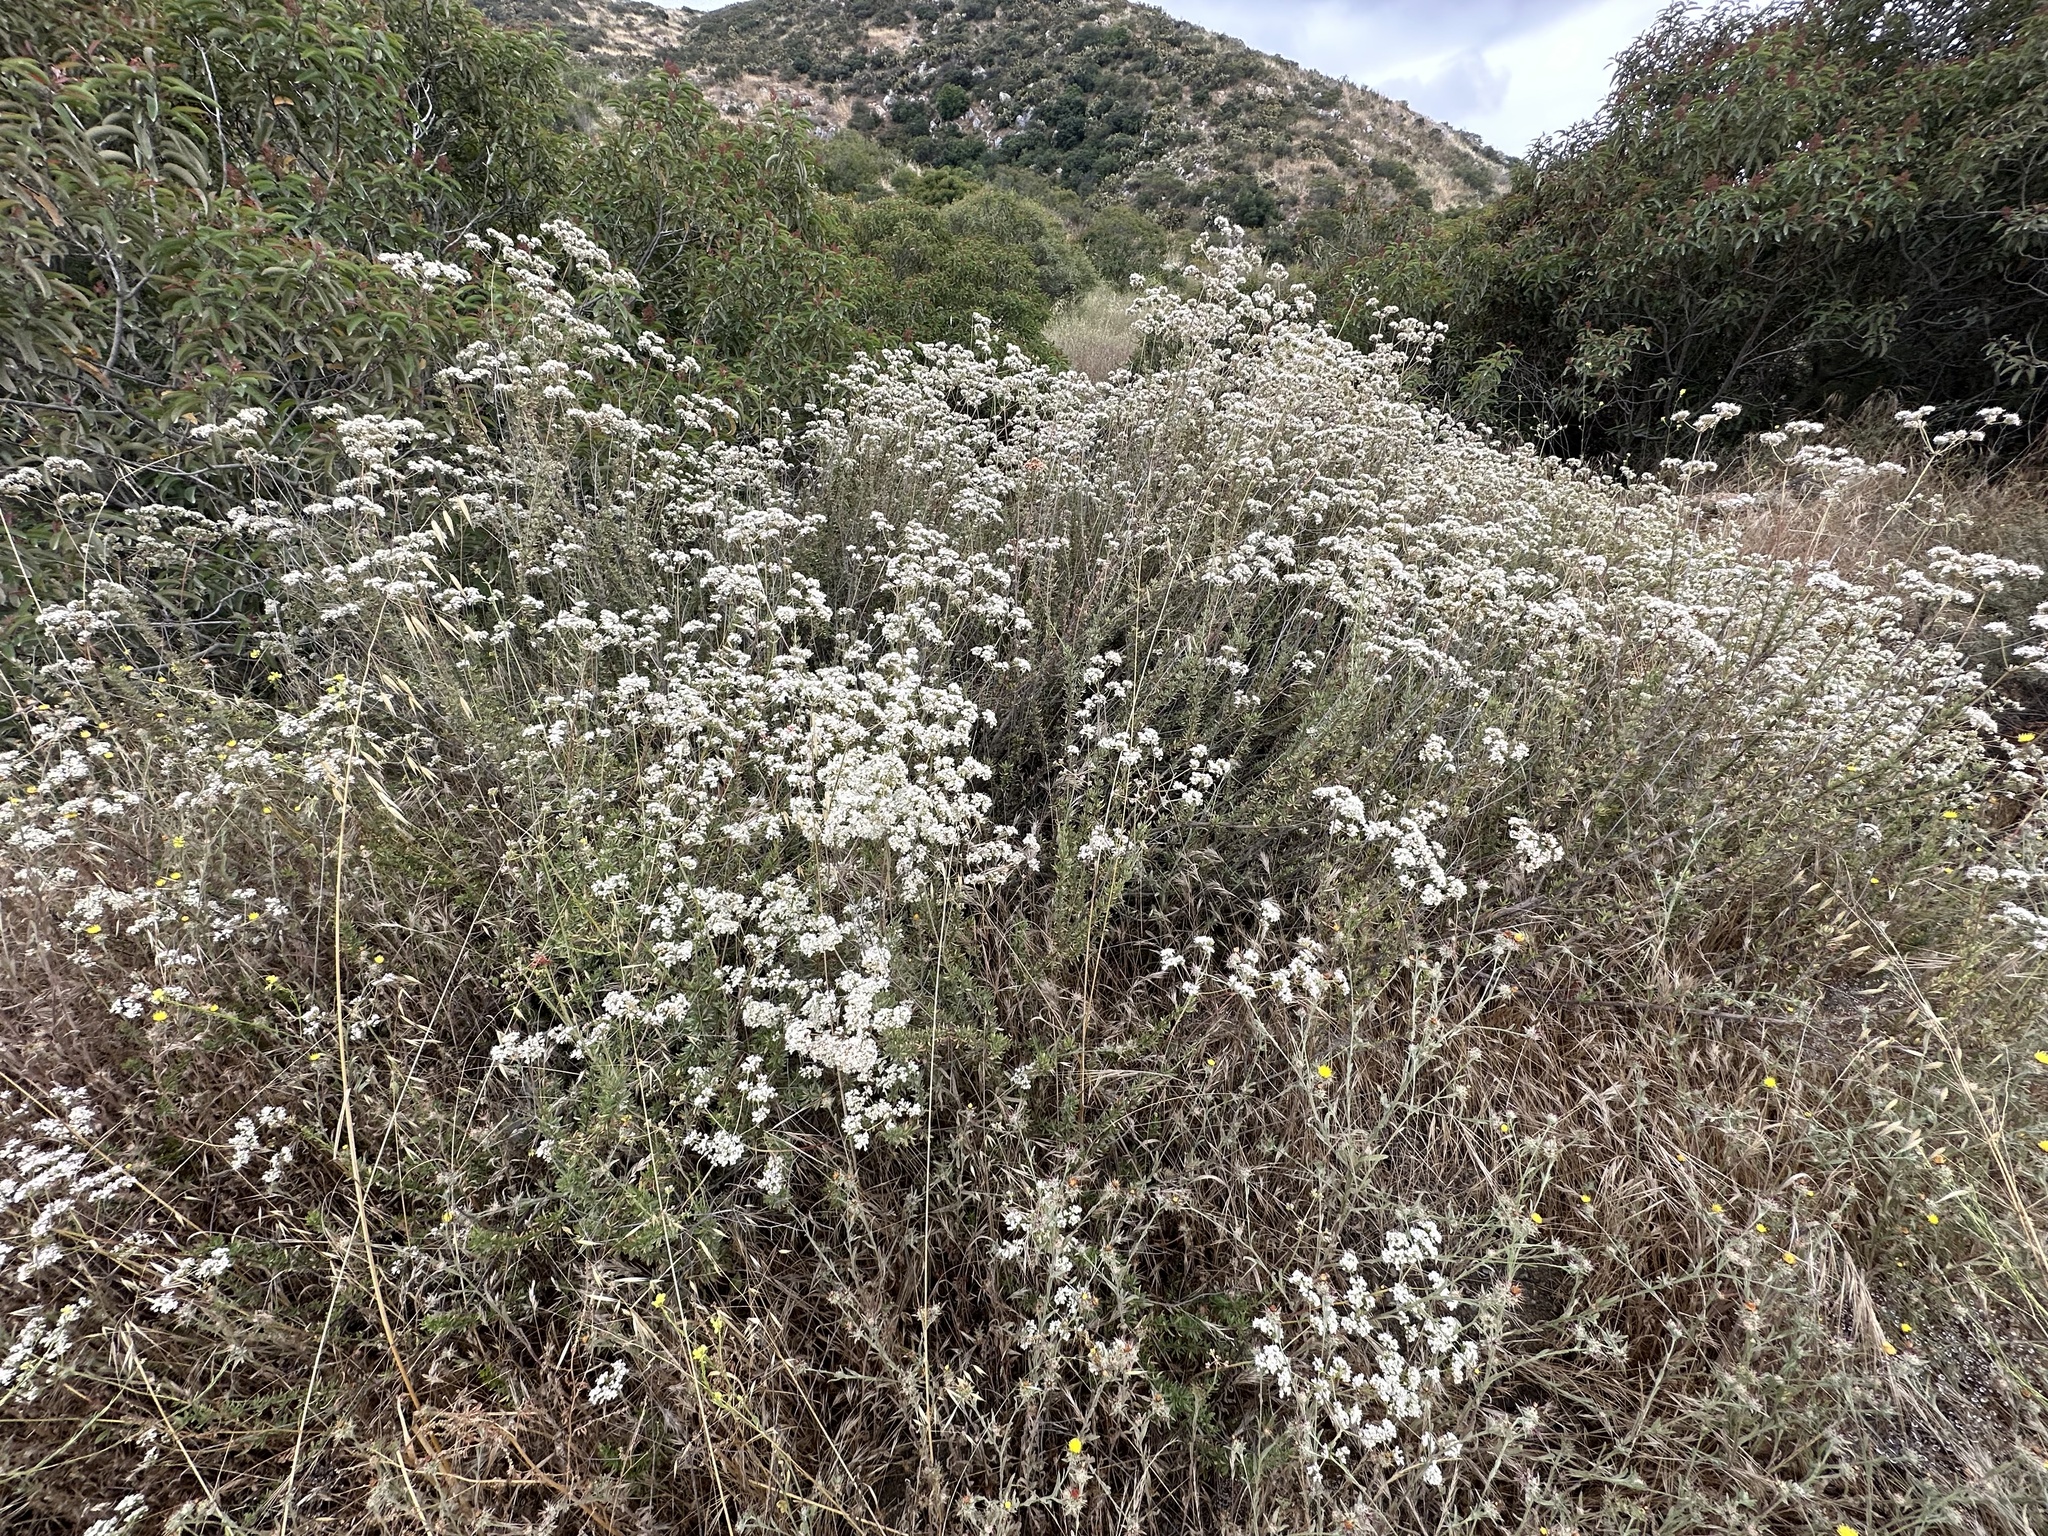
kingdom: Plantae
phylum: Tracheophyta
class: Magnoliopsida
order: Caryophyllales
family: Polygonaceae
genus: Eriogonum
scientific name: Eriogonum fasciculatum
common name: California wild buckwheat
